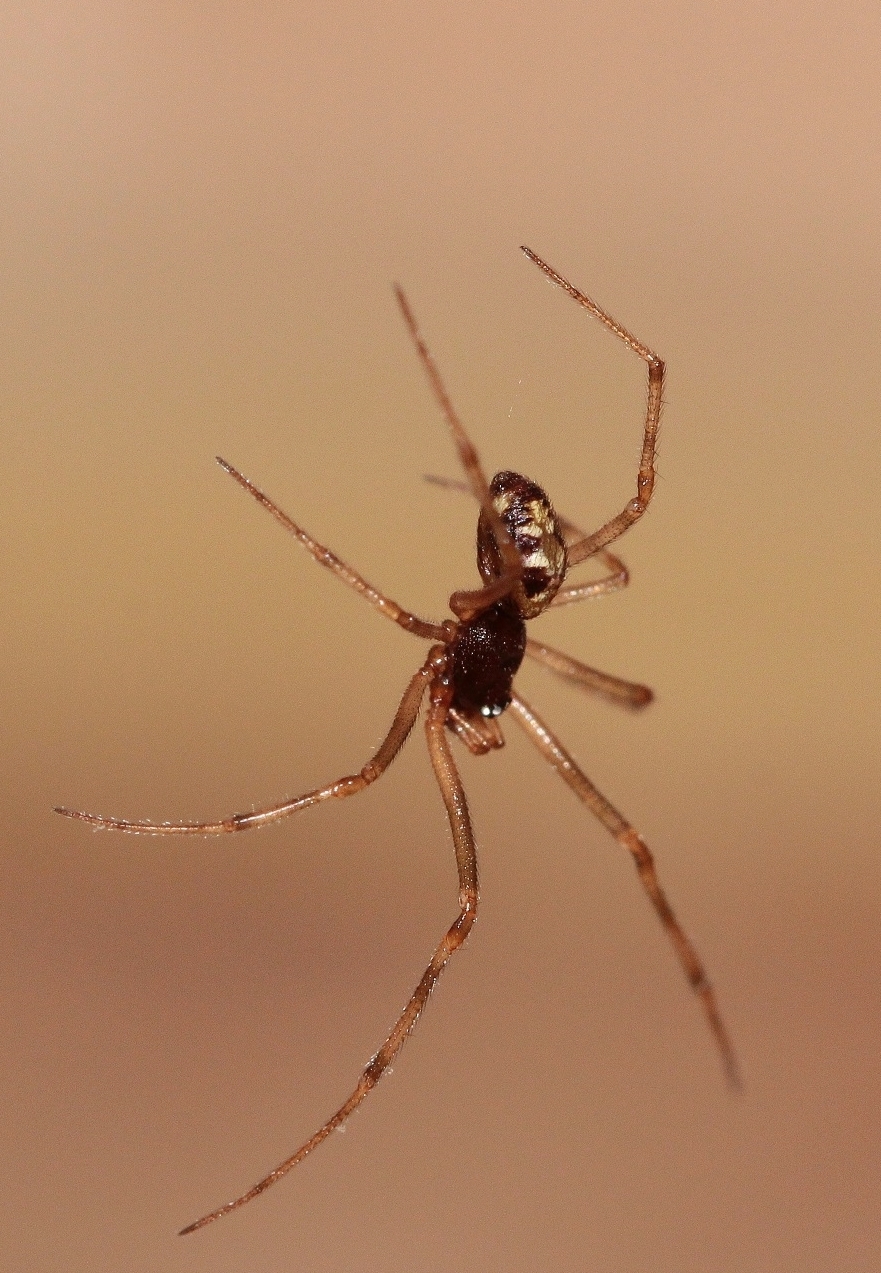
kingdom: Animalia
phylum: Arthropoda
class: Arachnida
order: Araneae
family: Theridiidae
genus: Steatoda
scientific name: Steatoda triangulosa
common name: Triangulate bud spider
